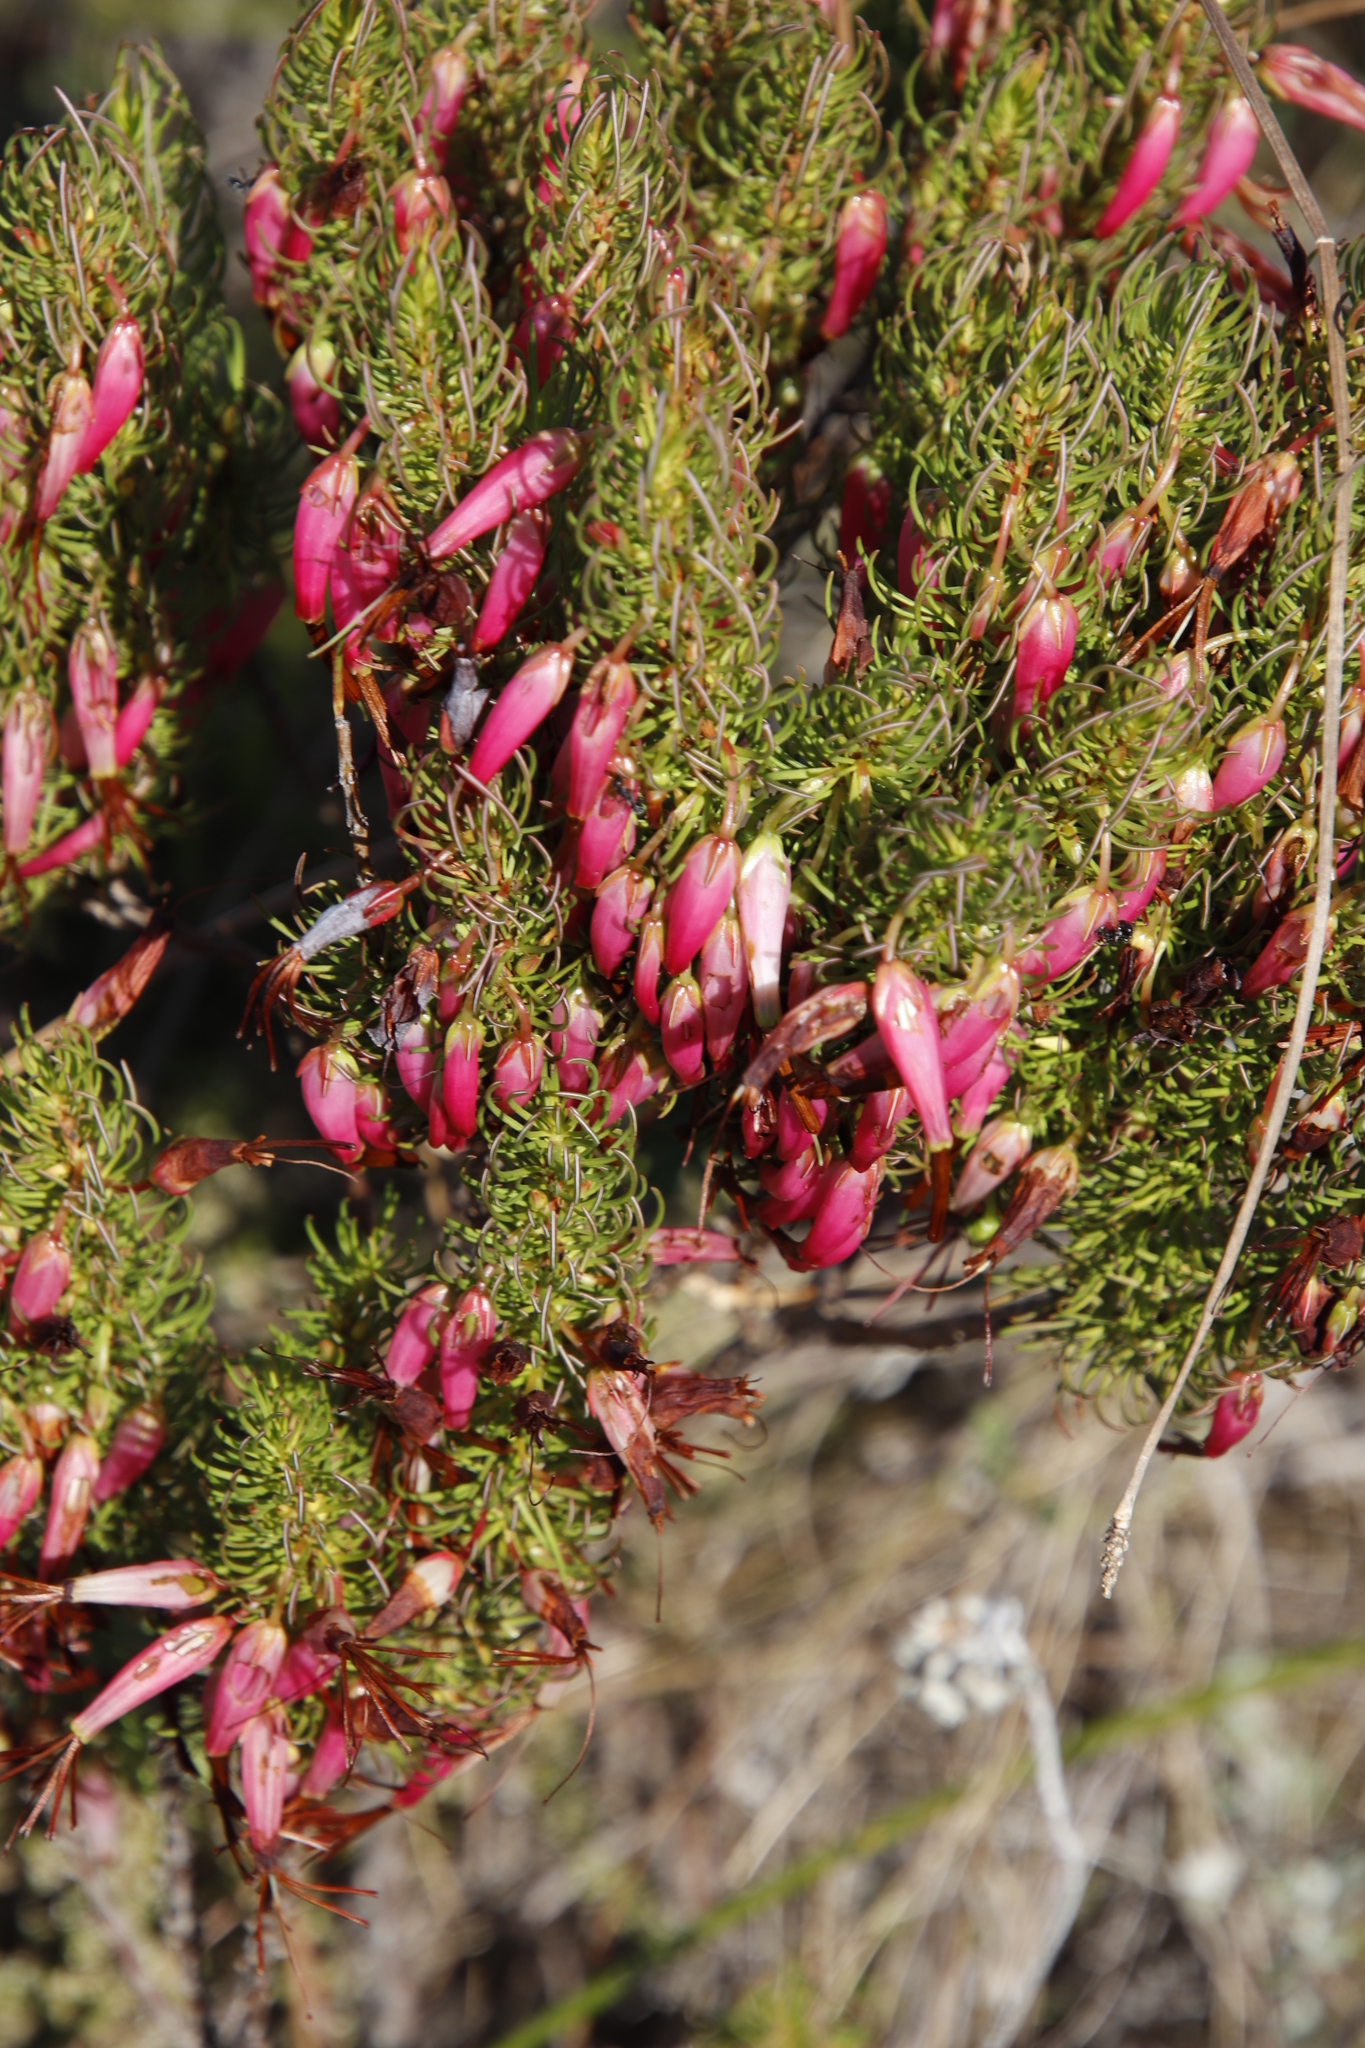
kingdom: Plantae
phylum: Tracheophyta
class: Magnoliopsida
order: Ericales
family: Ericaceae
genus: Erica
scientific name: Erica plukenetii
